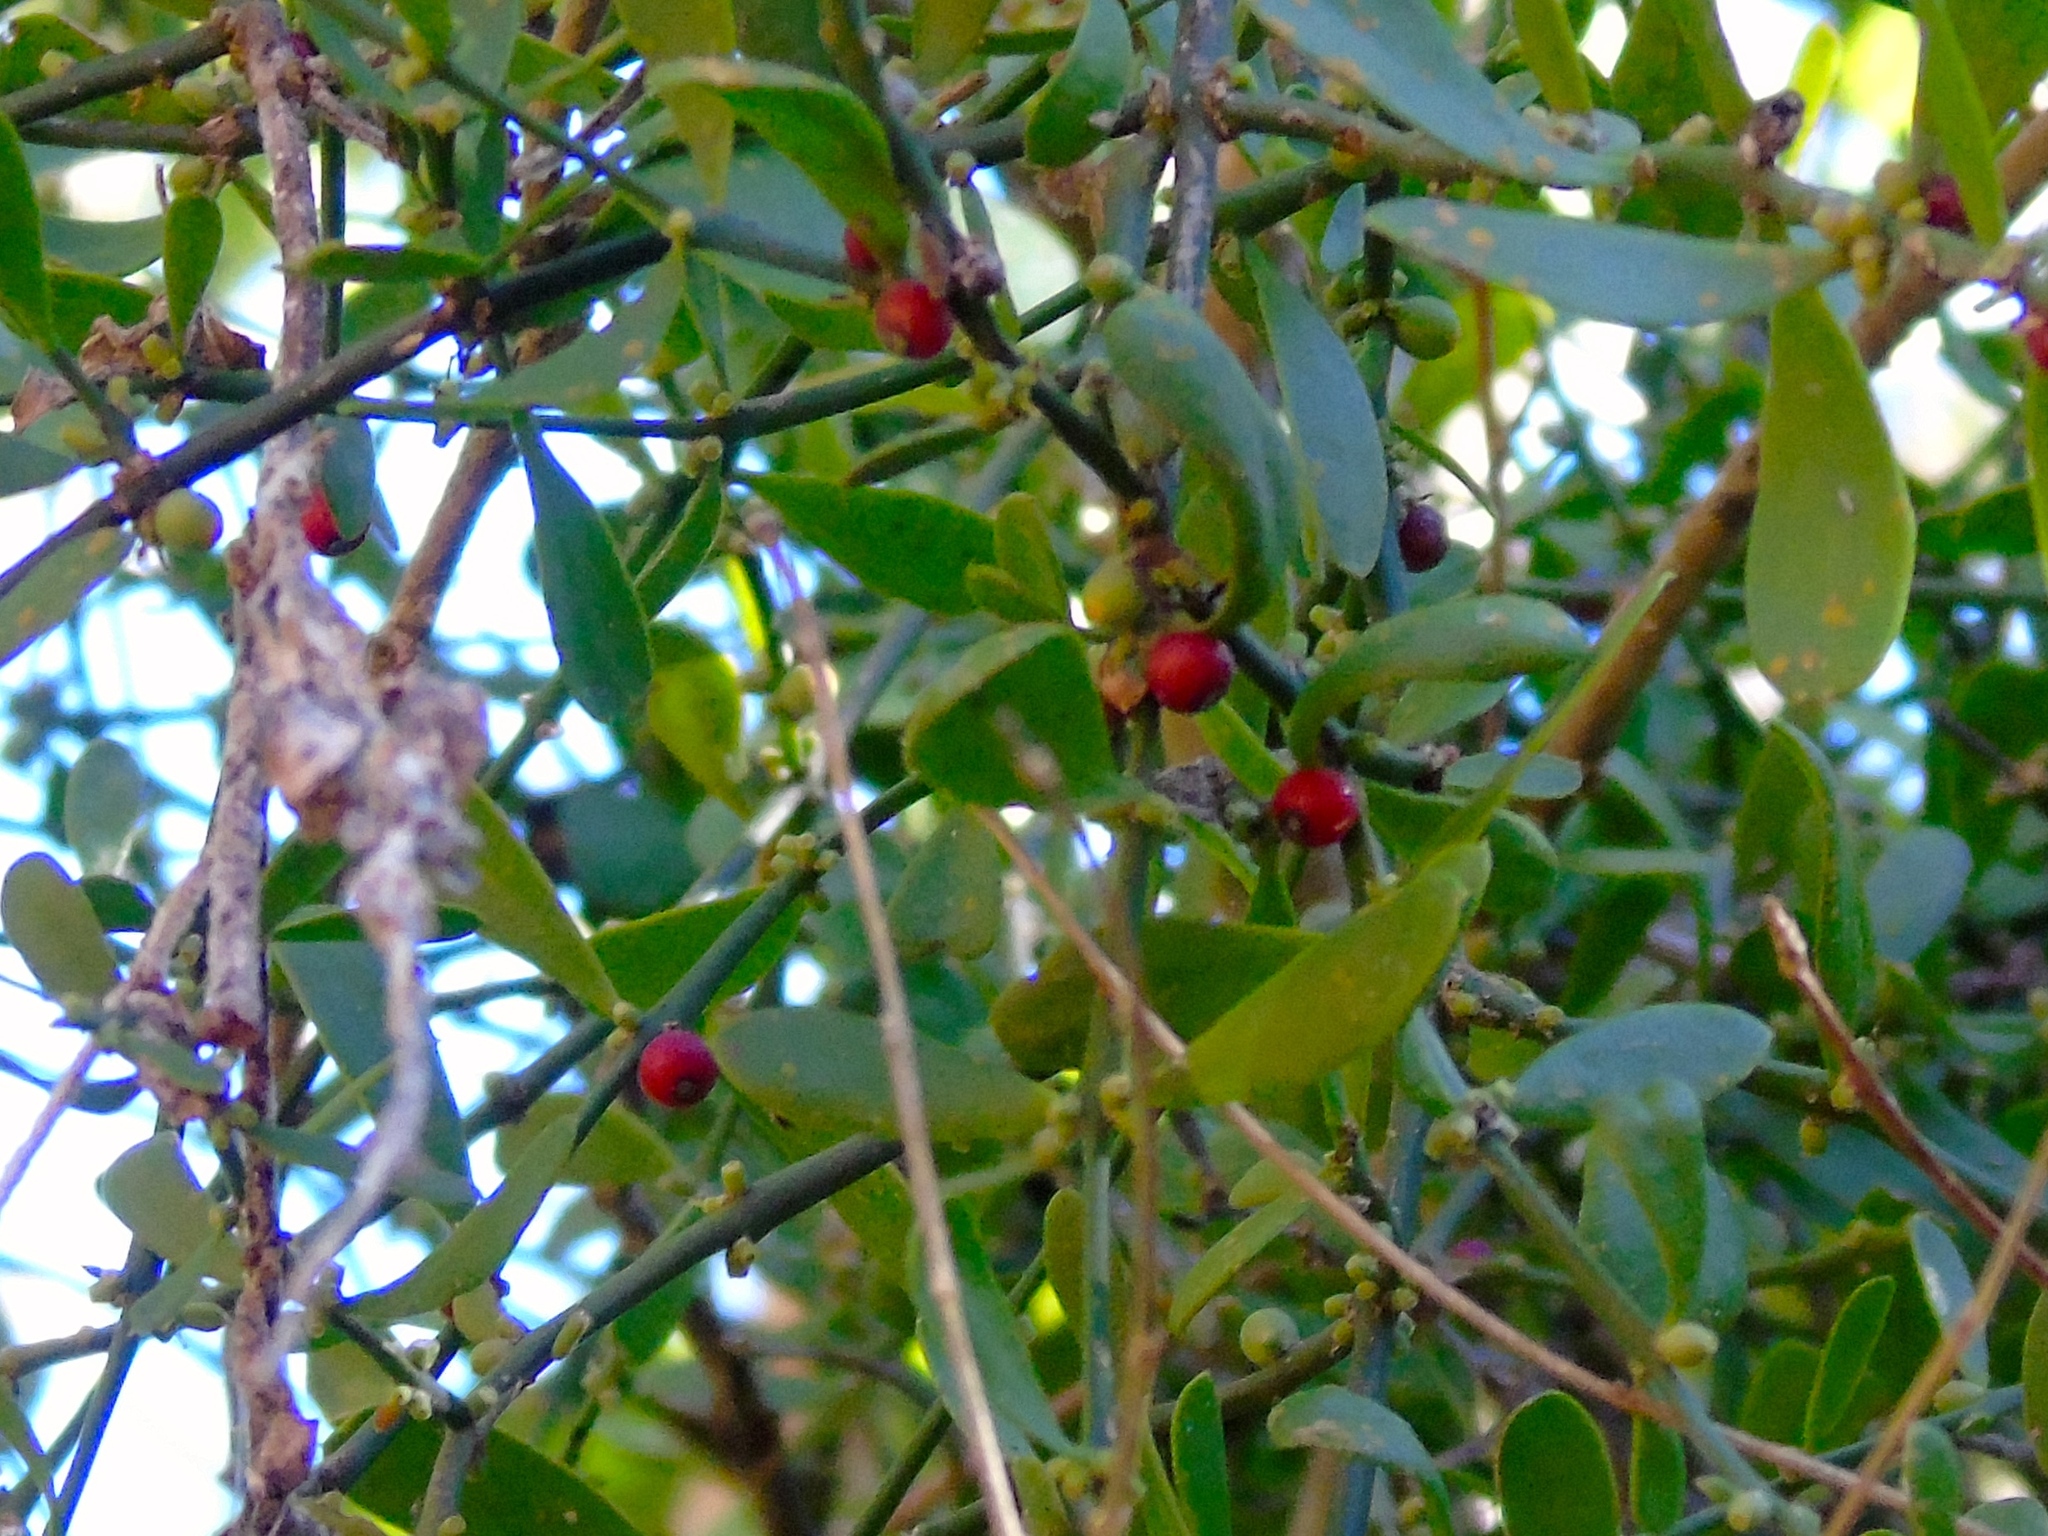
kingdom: Plantae
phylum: Tracheophyta
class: Magnoliopsida
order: Santalales
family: Loranthaceae
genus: Phthirusa
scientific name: Phthirusa inconspicua
